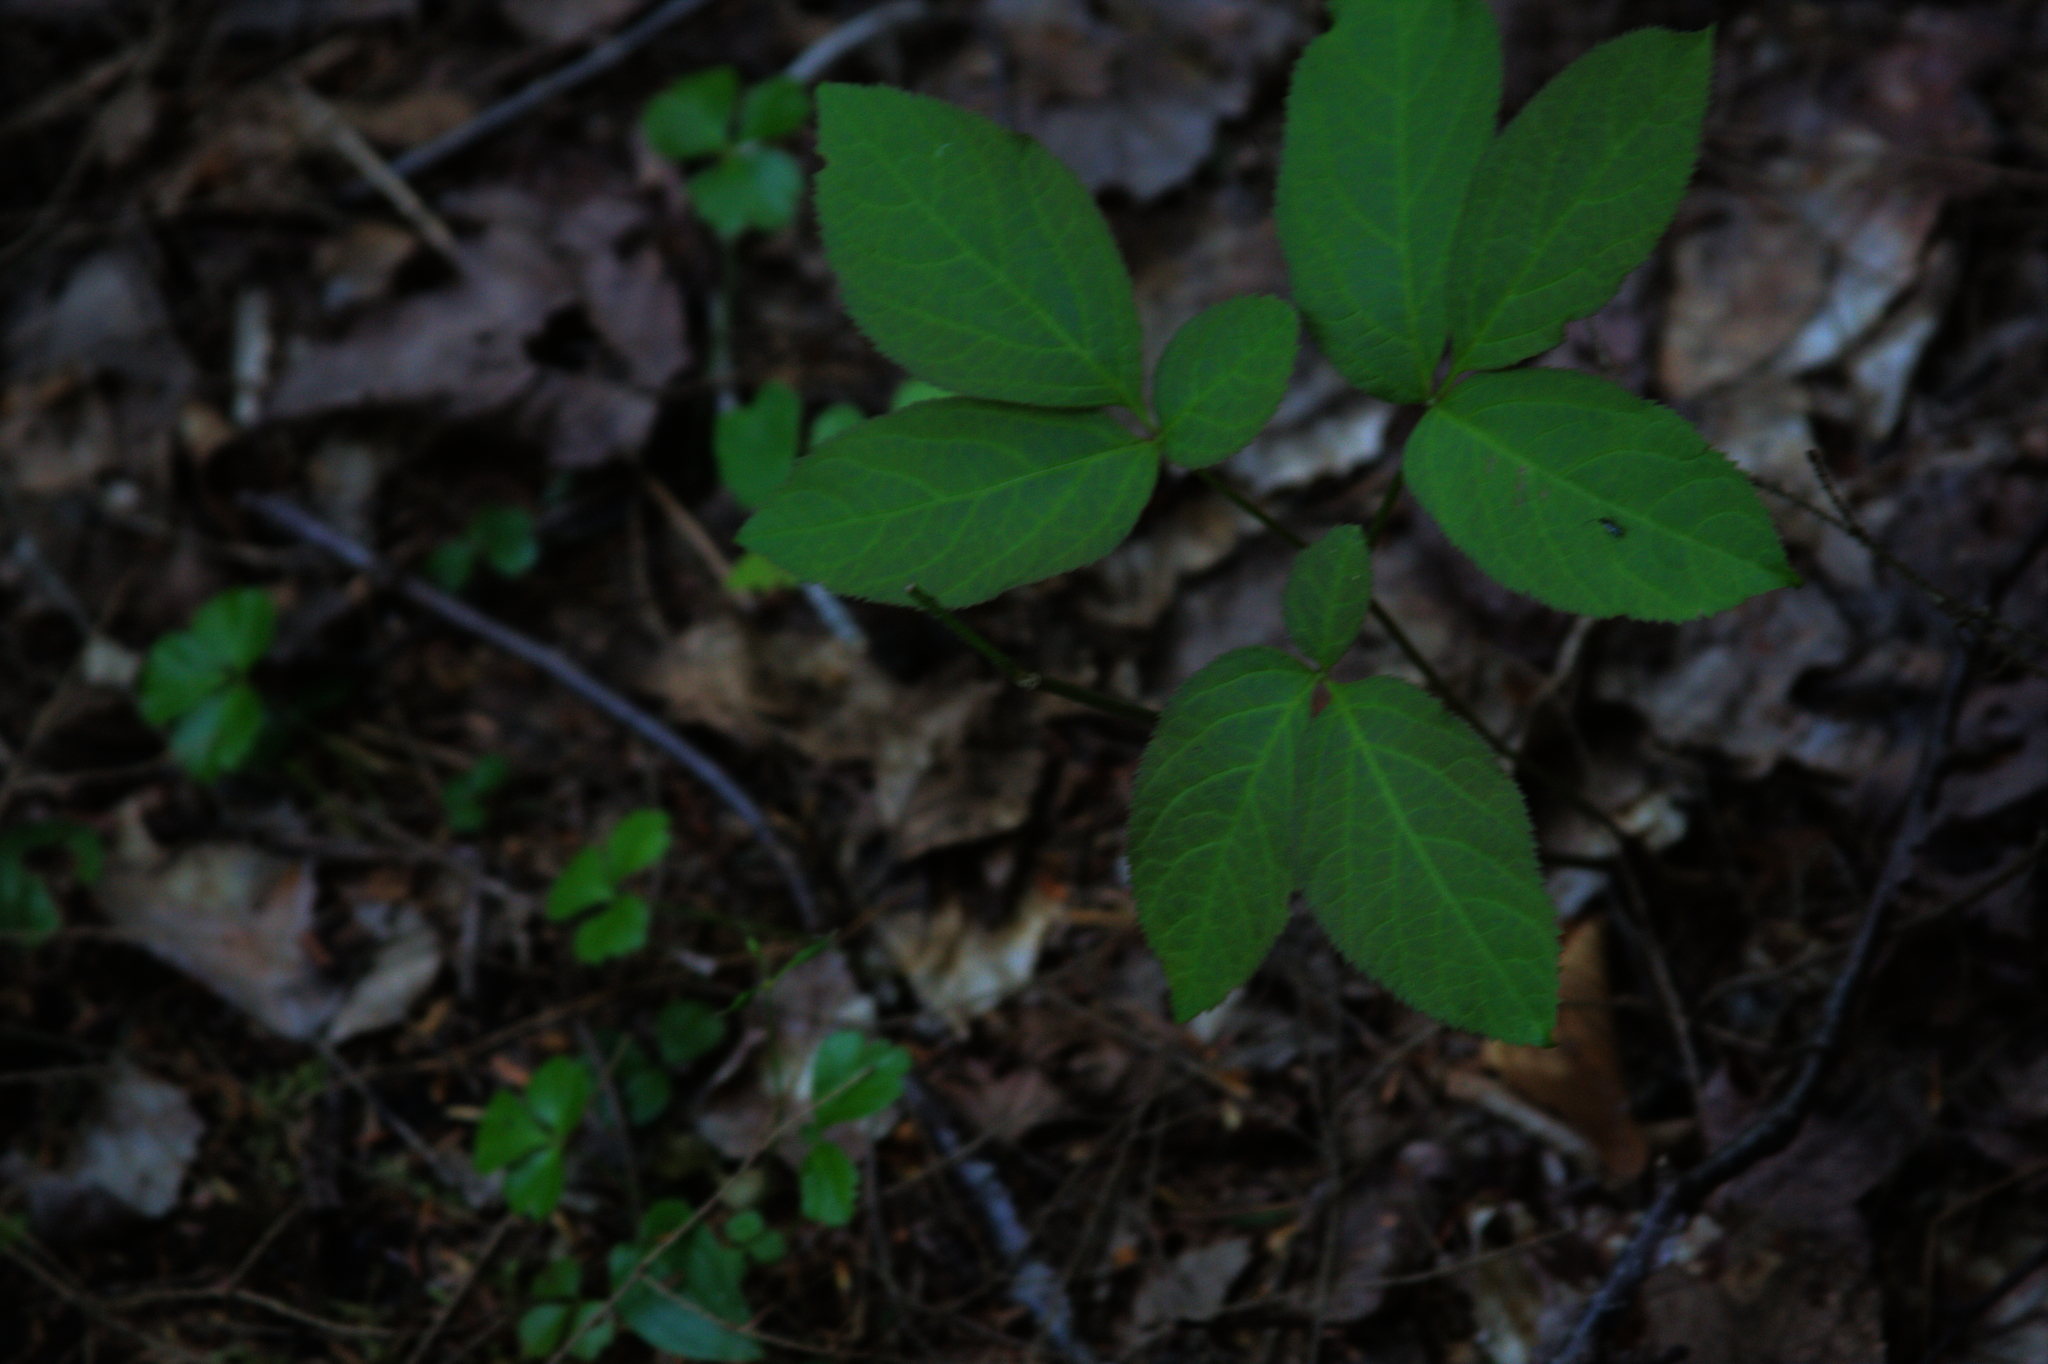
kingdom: Plantae
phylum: Tracheophyta
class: Magnoliopsida
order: Apiales
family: Araliaceae
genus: Aralia
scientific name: Aralia nudicaulis
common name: Wild sarsaparilla
